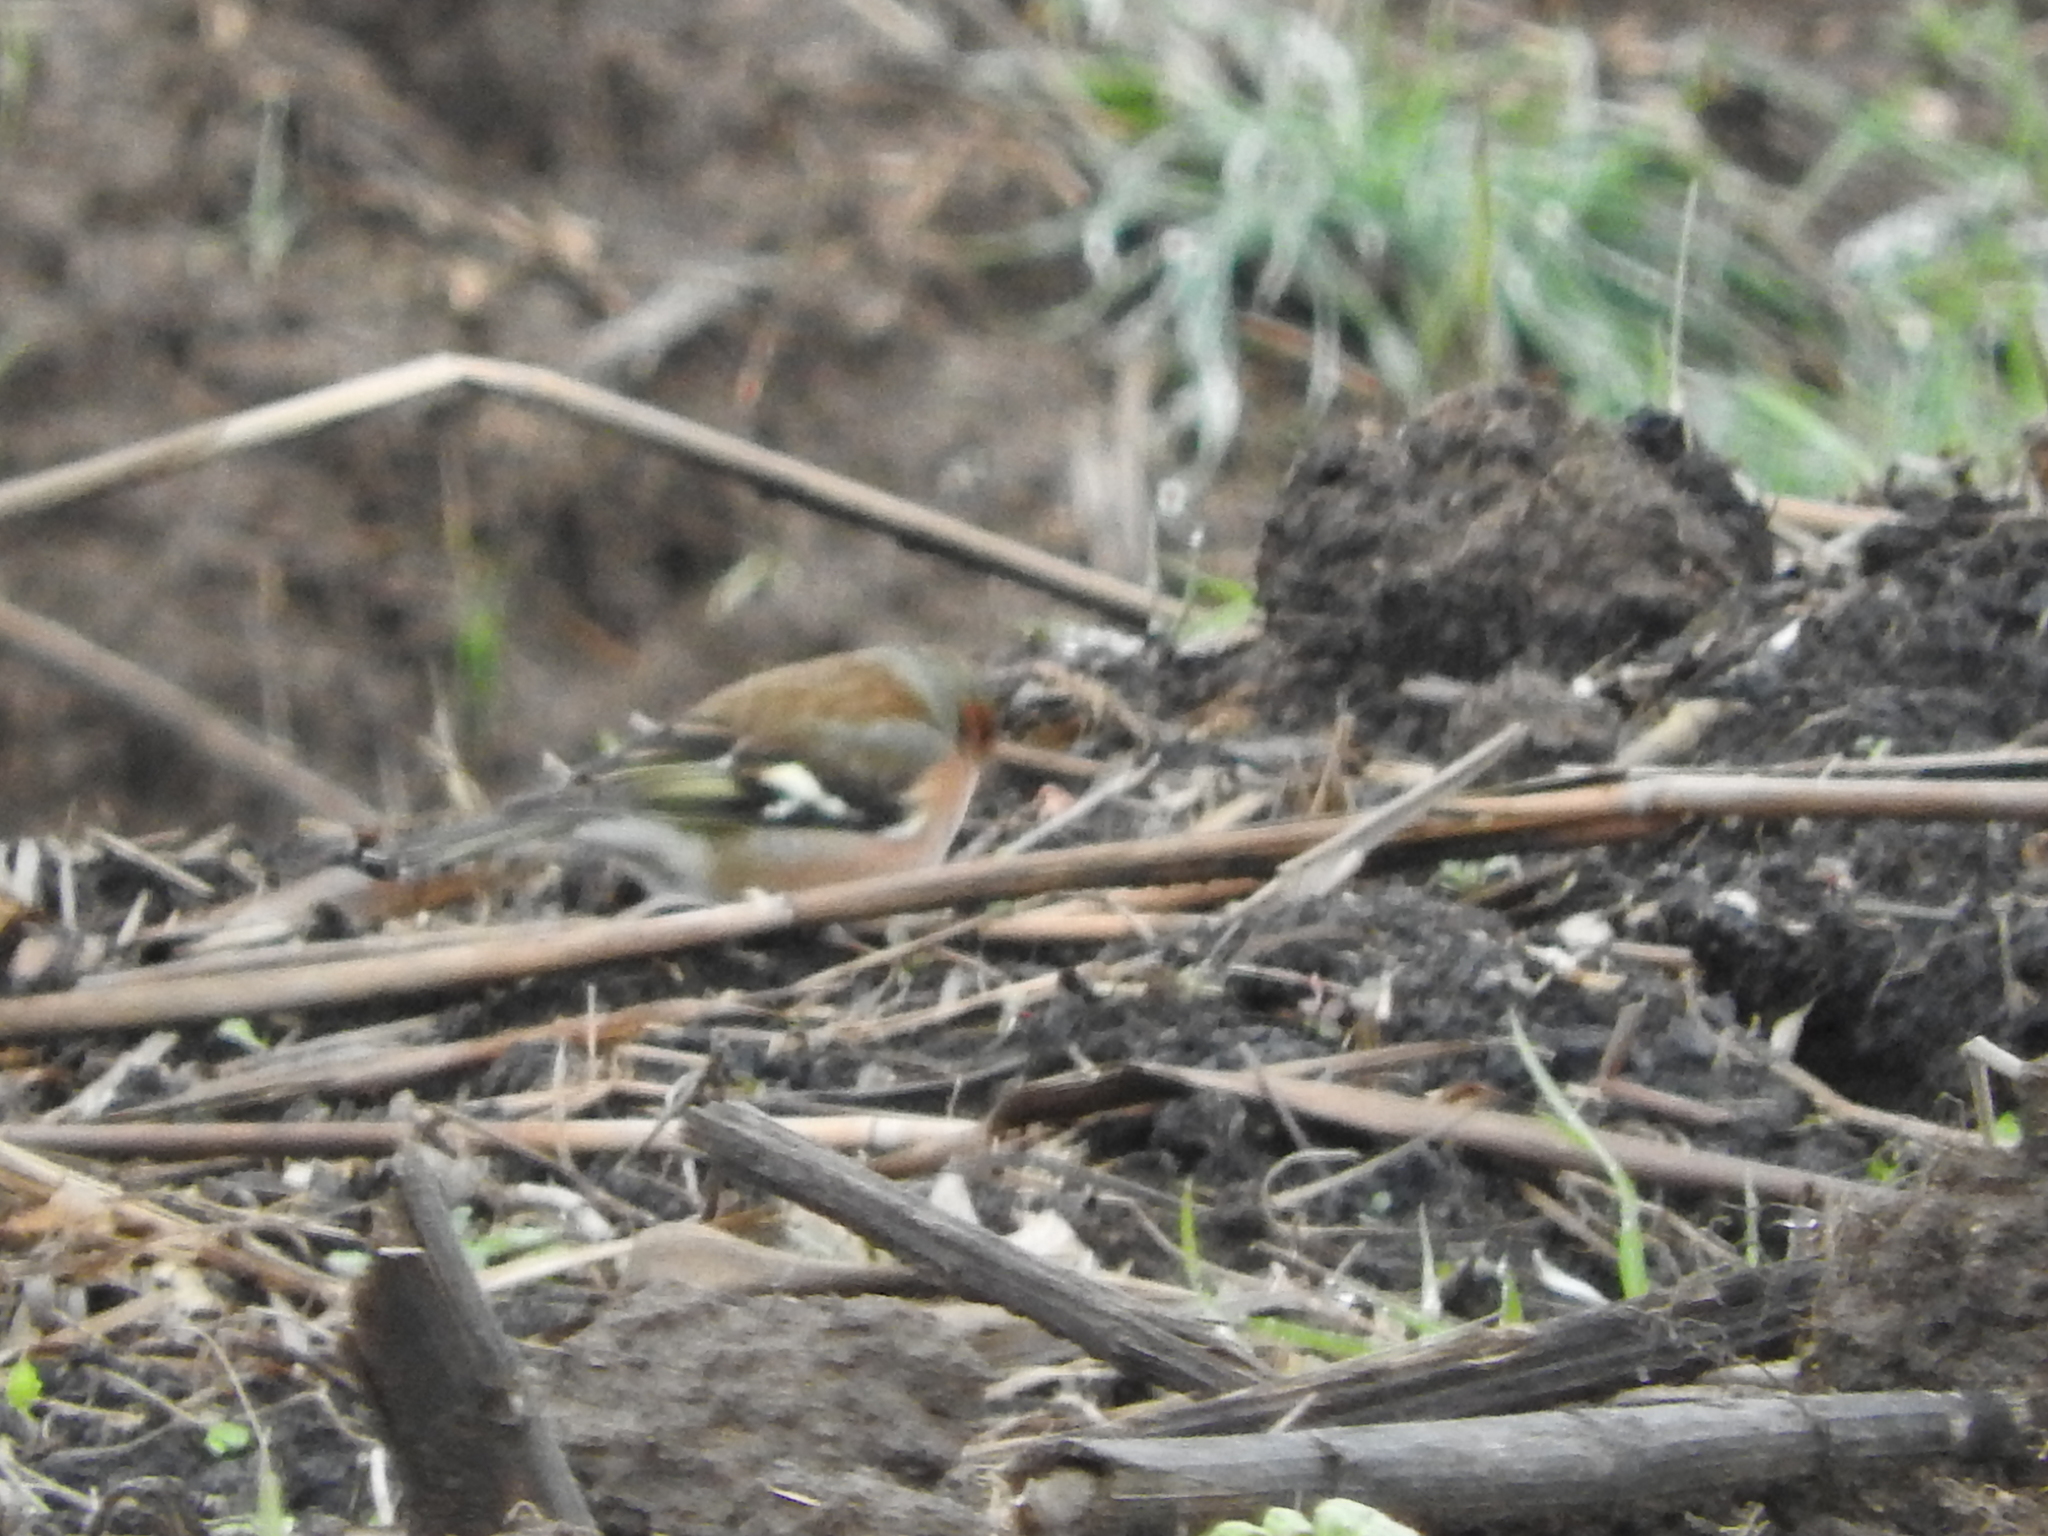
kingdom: Animalia
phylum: Chordata
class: Aves
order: Passeriformes
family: Fringillidae
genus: Fringilla
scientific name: Fringilla coelebs
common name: Common chaffinch
